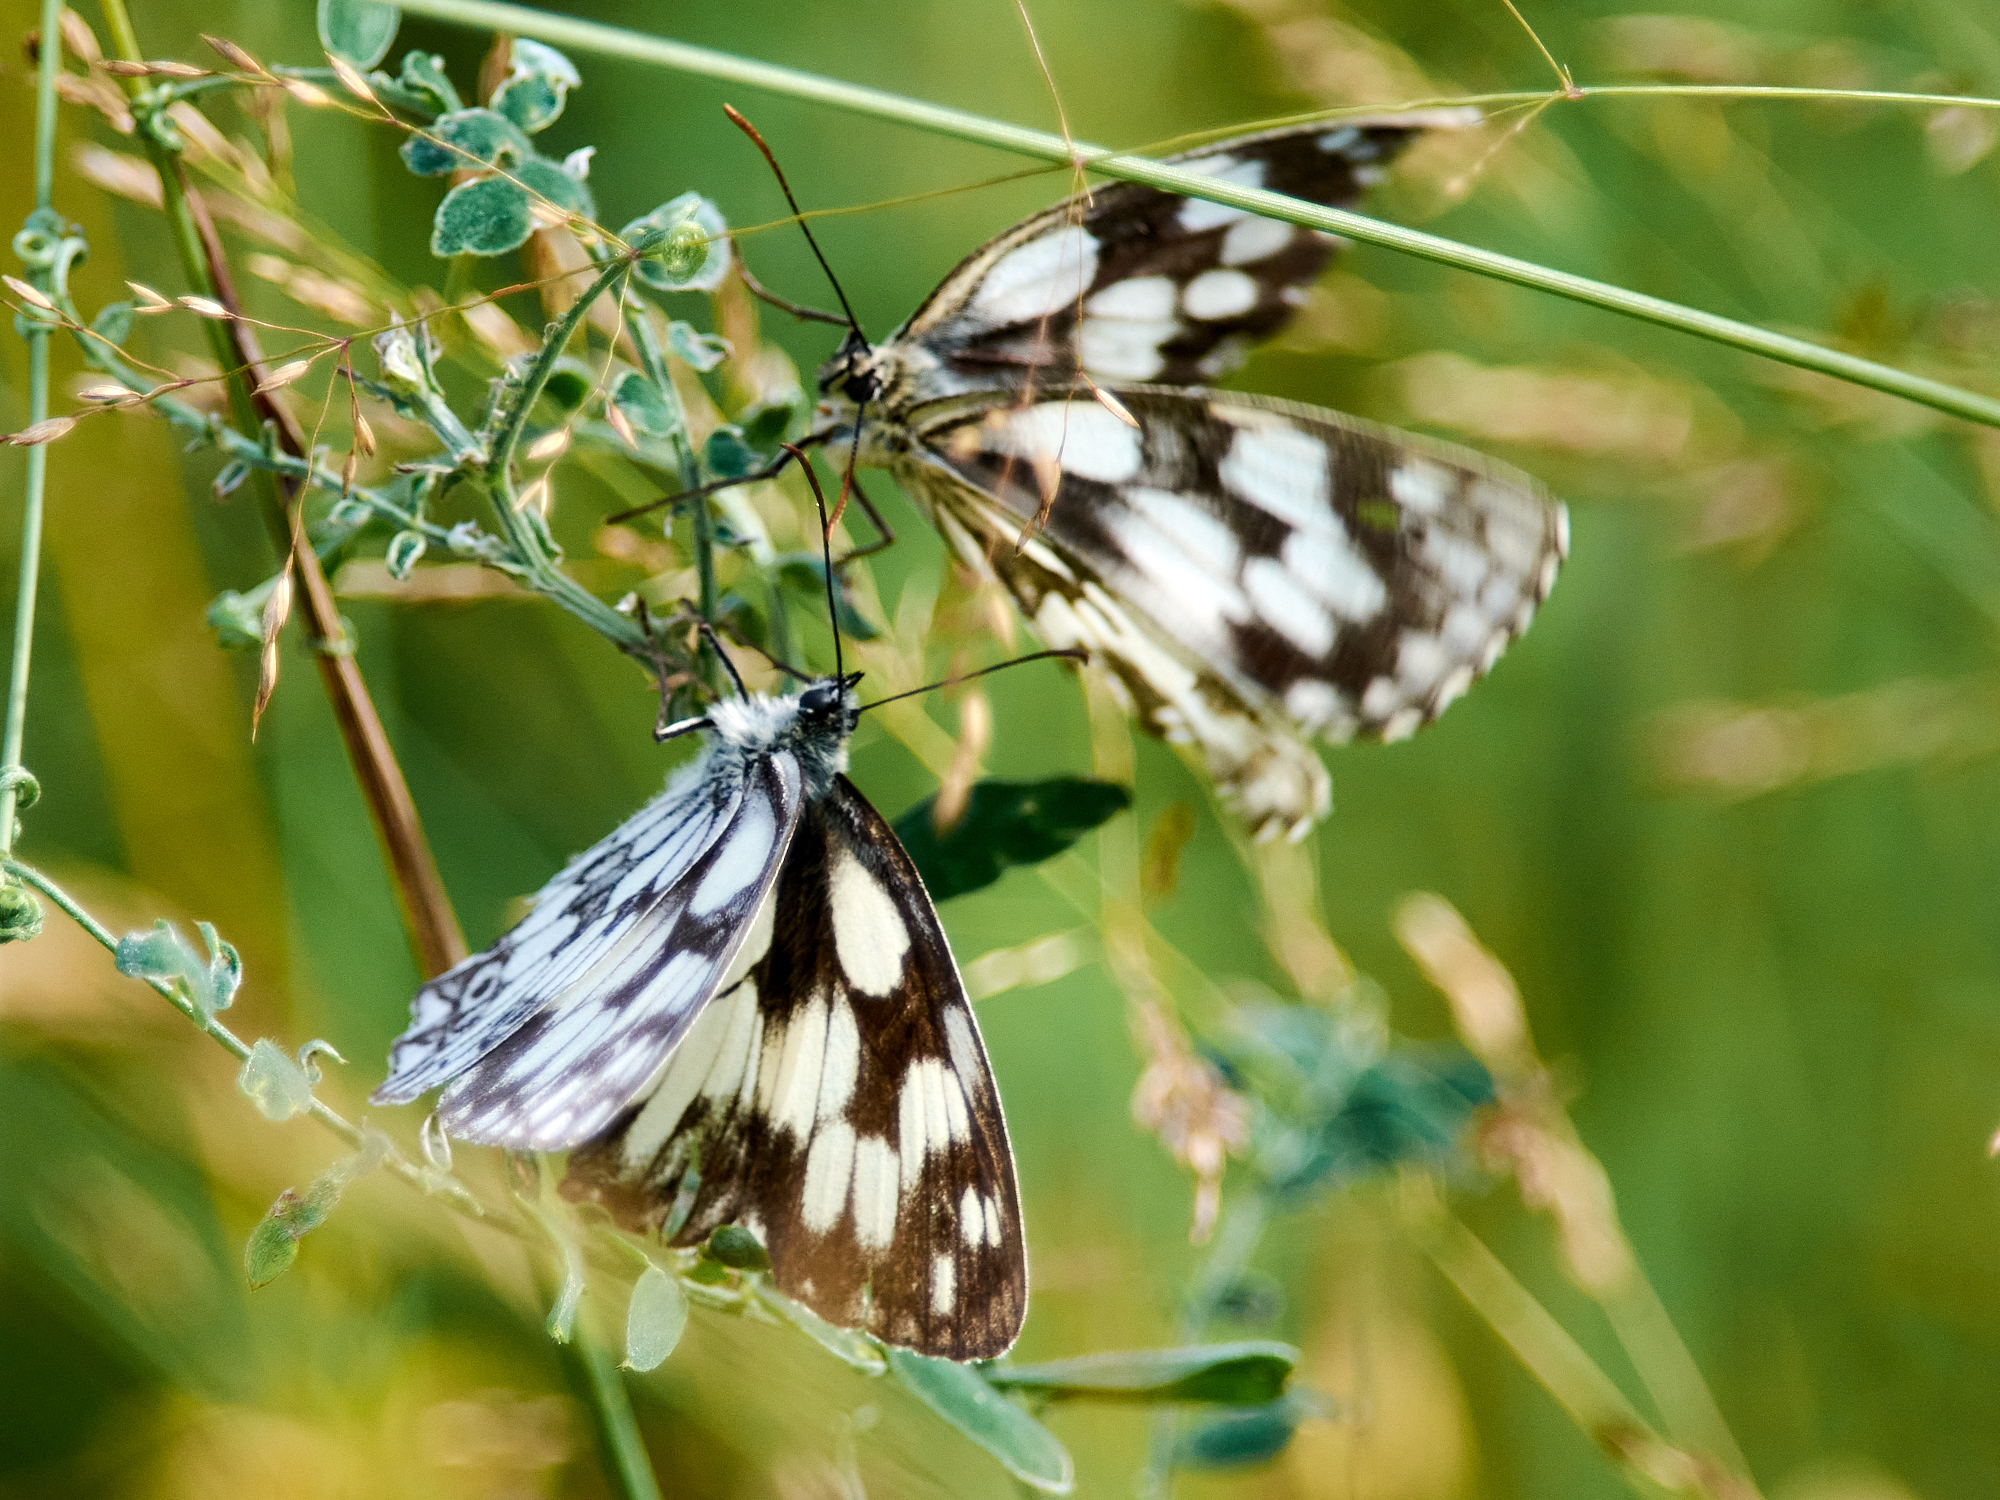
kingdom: Animalia
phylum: Arthropoda
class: Insecta
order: Lepidoptera
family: Nymphalidae
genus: Melanargia
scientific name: Melanargia galathea
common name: Marbled white
